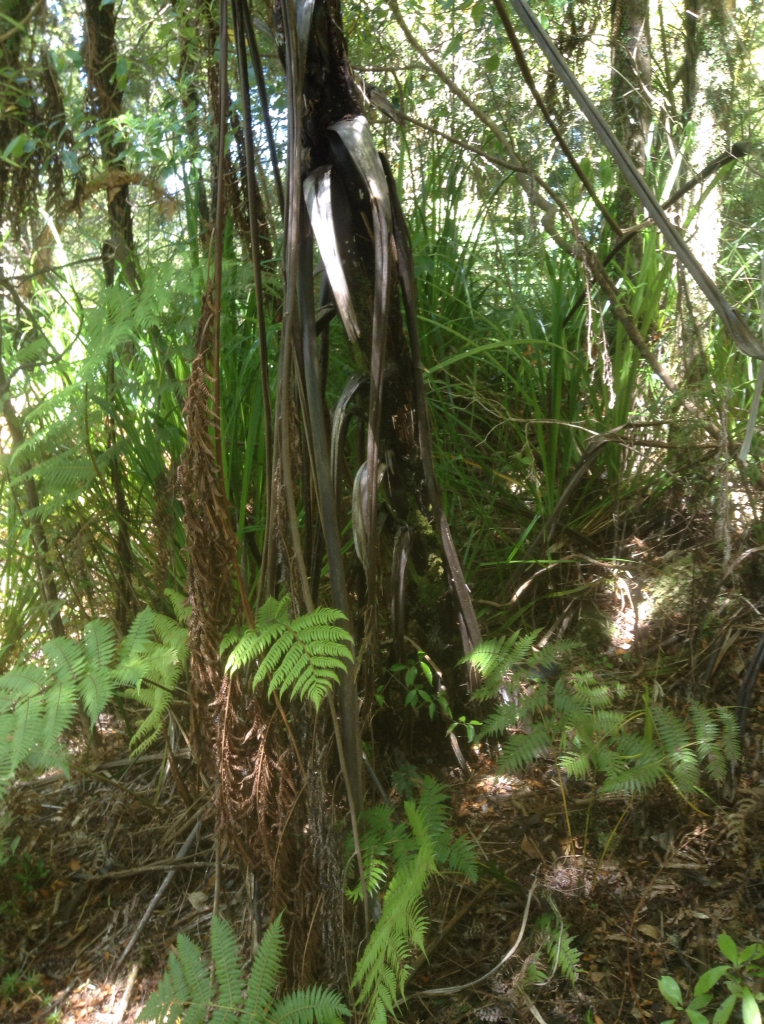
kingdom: Plantae
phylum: Tracheophyta
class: Polypodiopsida
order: Cyatheales
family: Cyatheaceae
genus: Sphaeropteris
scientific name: Sphaeropteris medullaris
